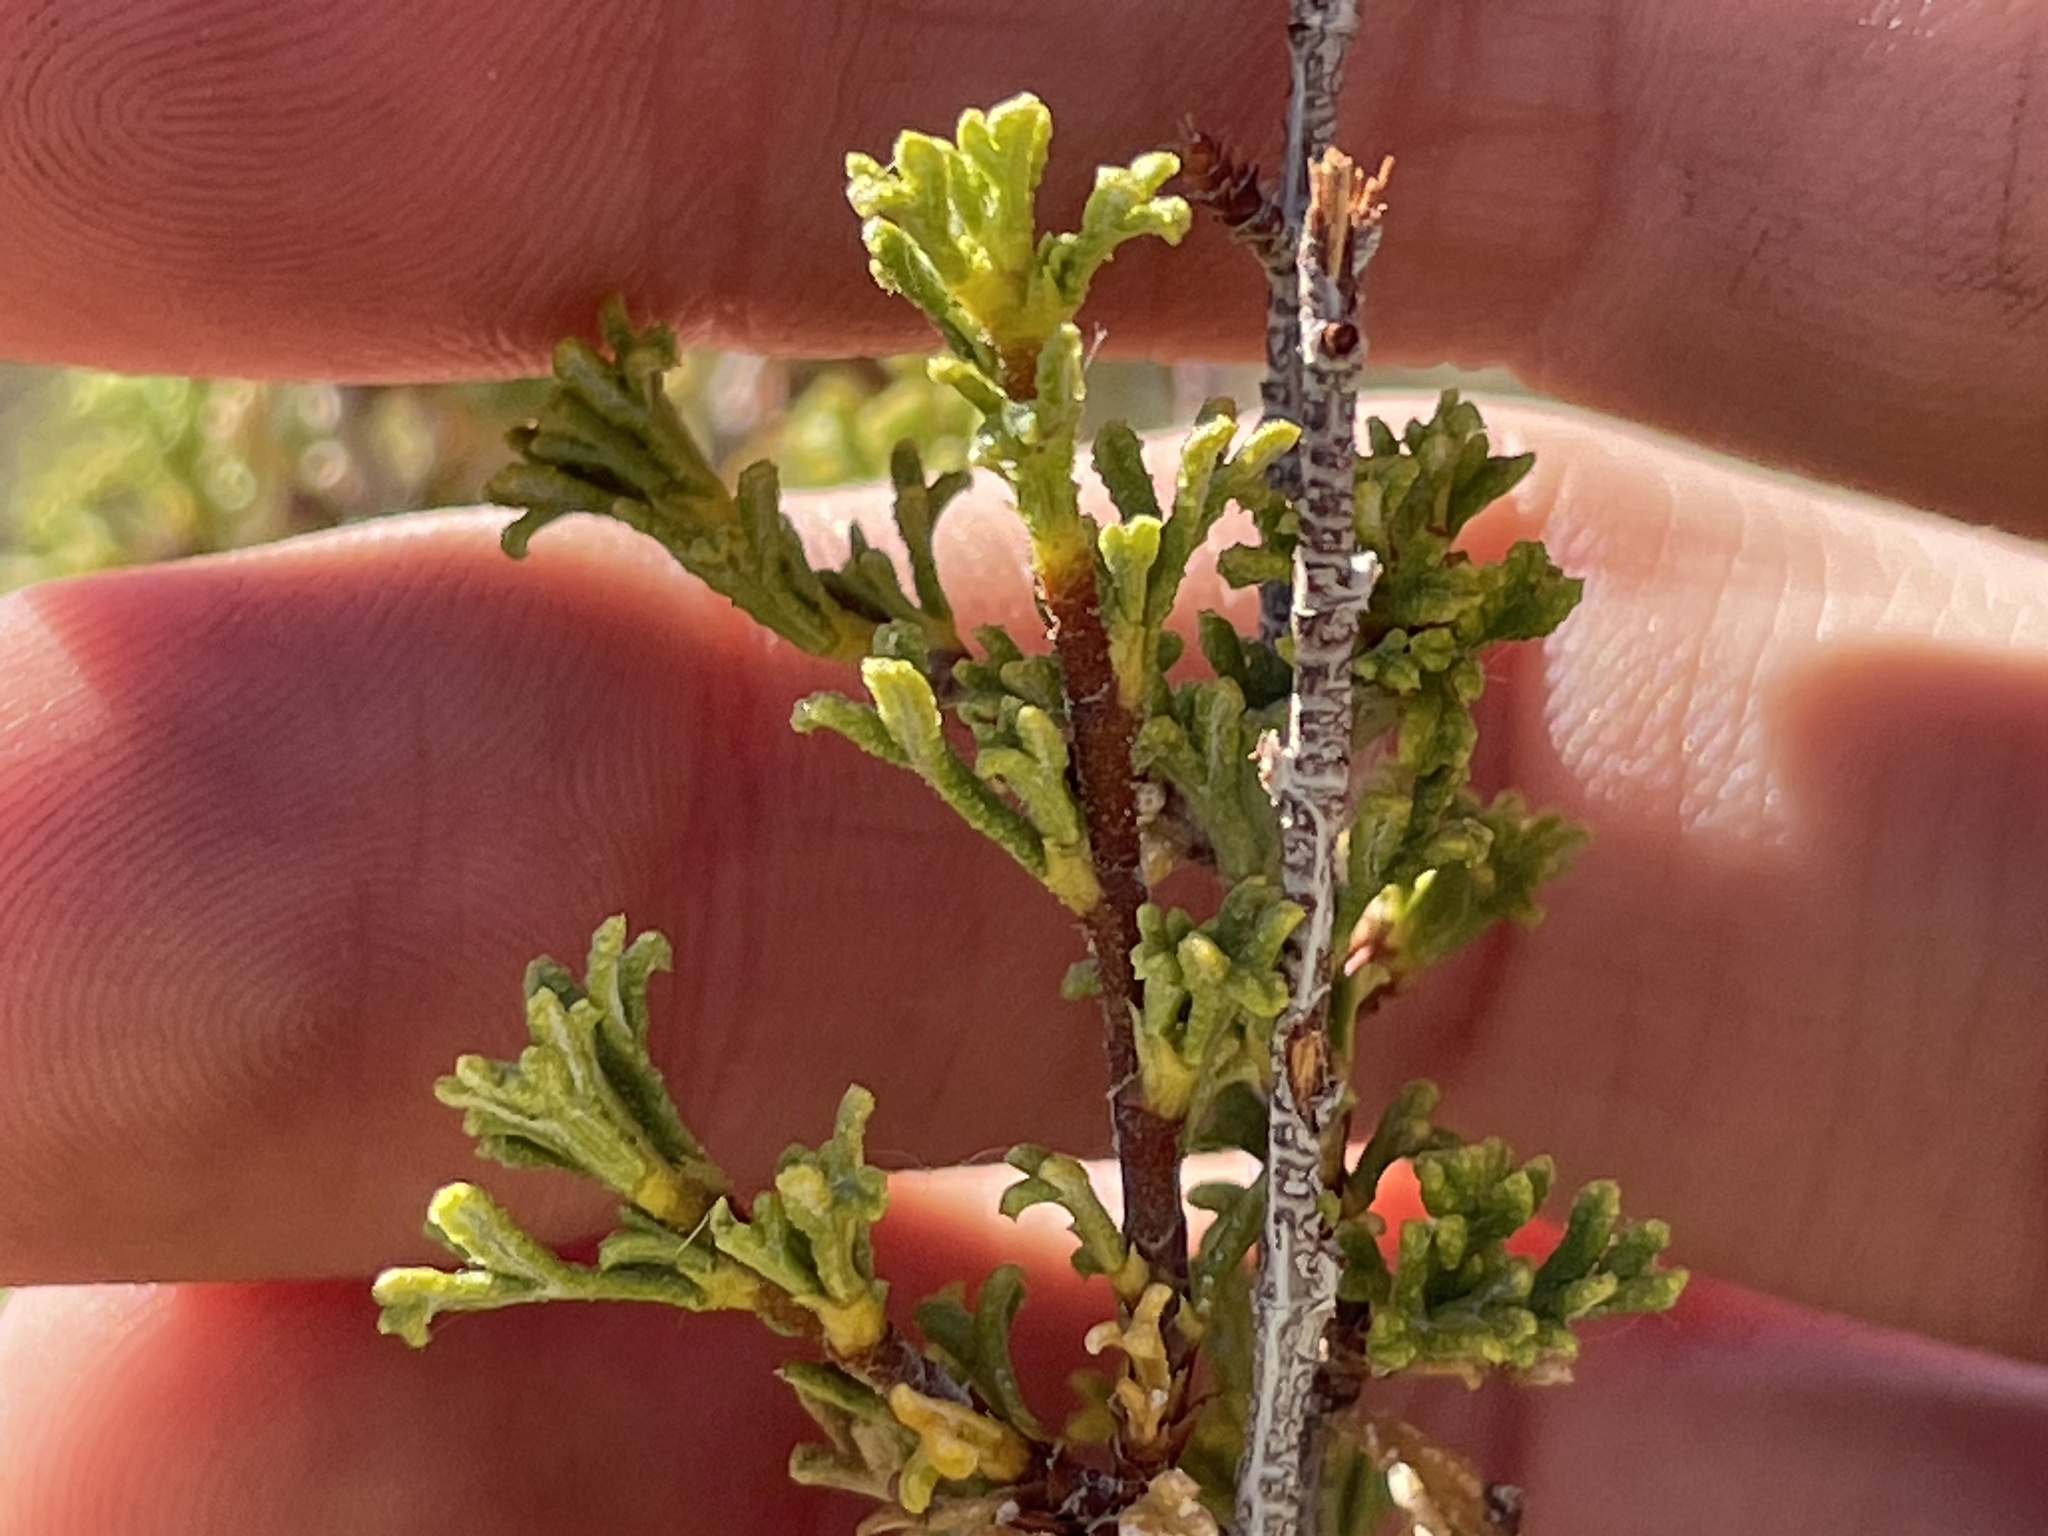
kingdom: Plantae
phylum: Tracheophyta
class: Magnoliopsida
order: Rosales
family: Rosaceae
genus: Purshia
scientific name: Purshia glandulosa
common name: Desert bitterbrush
